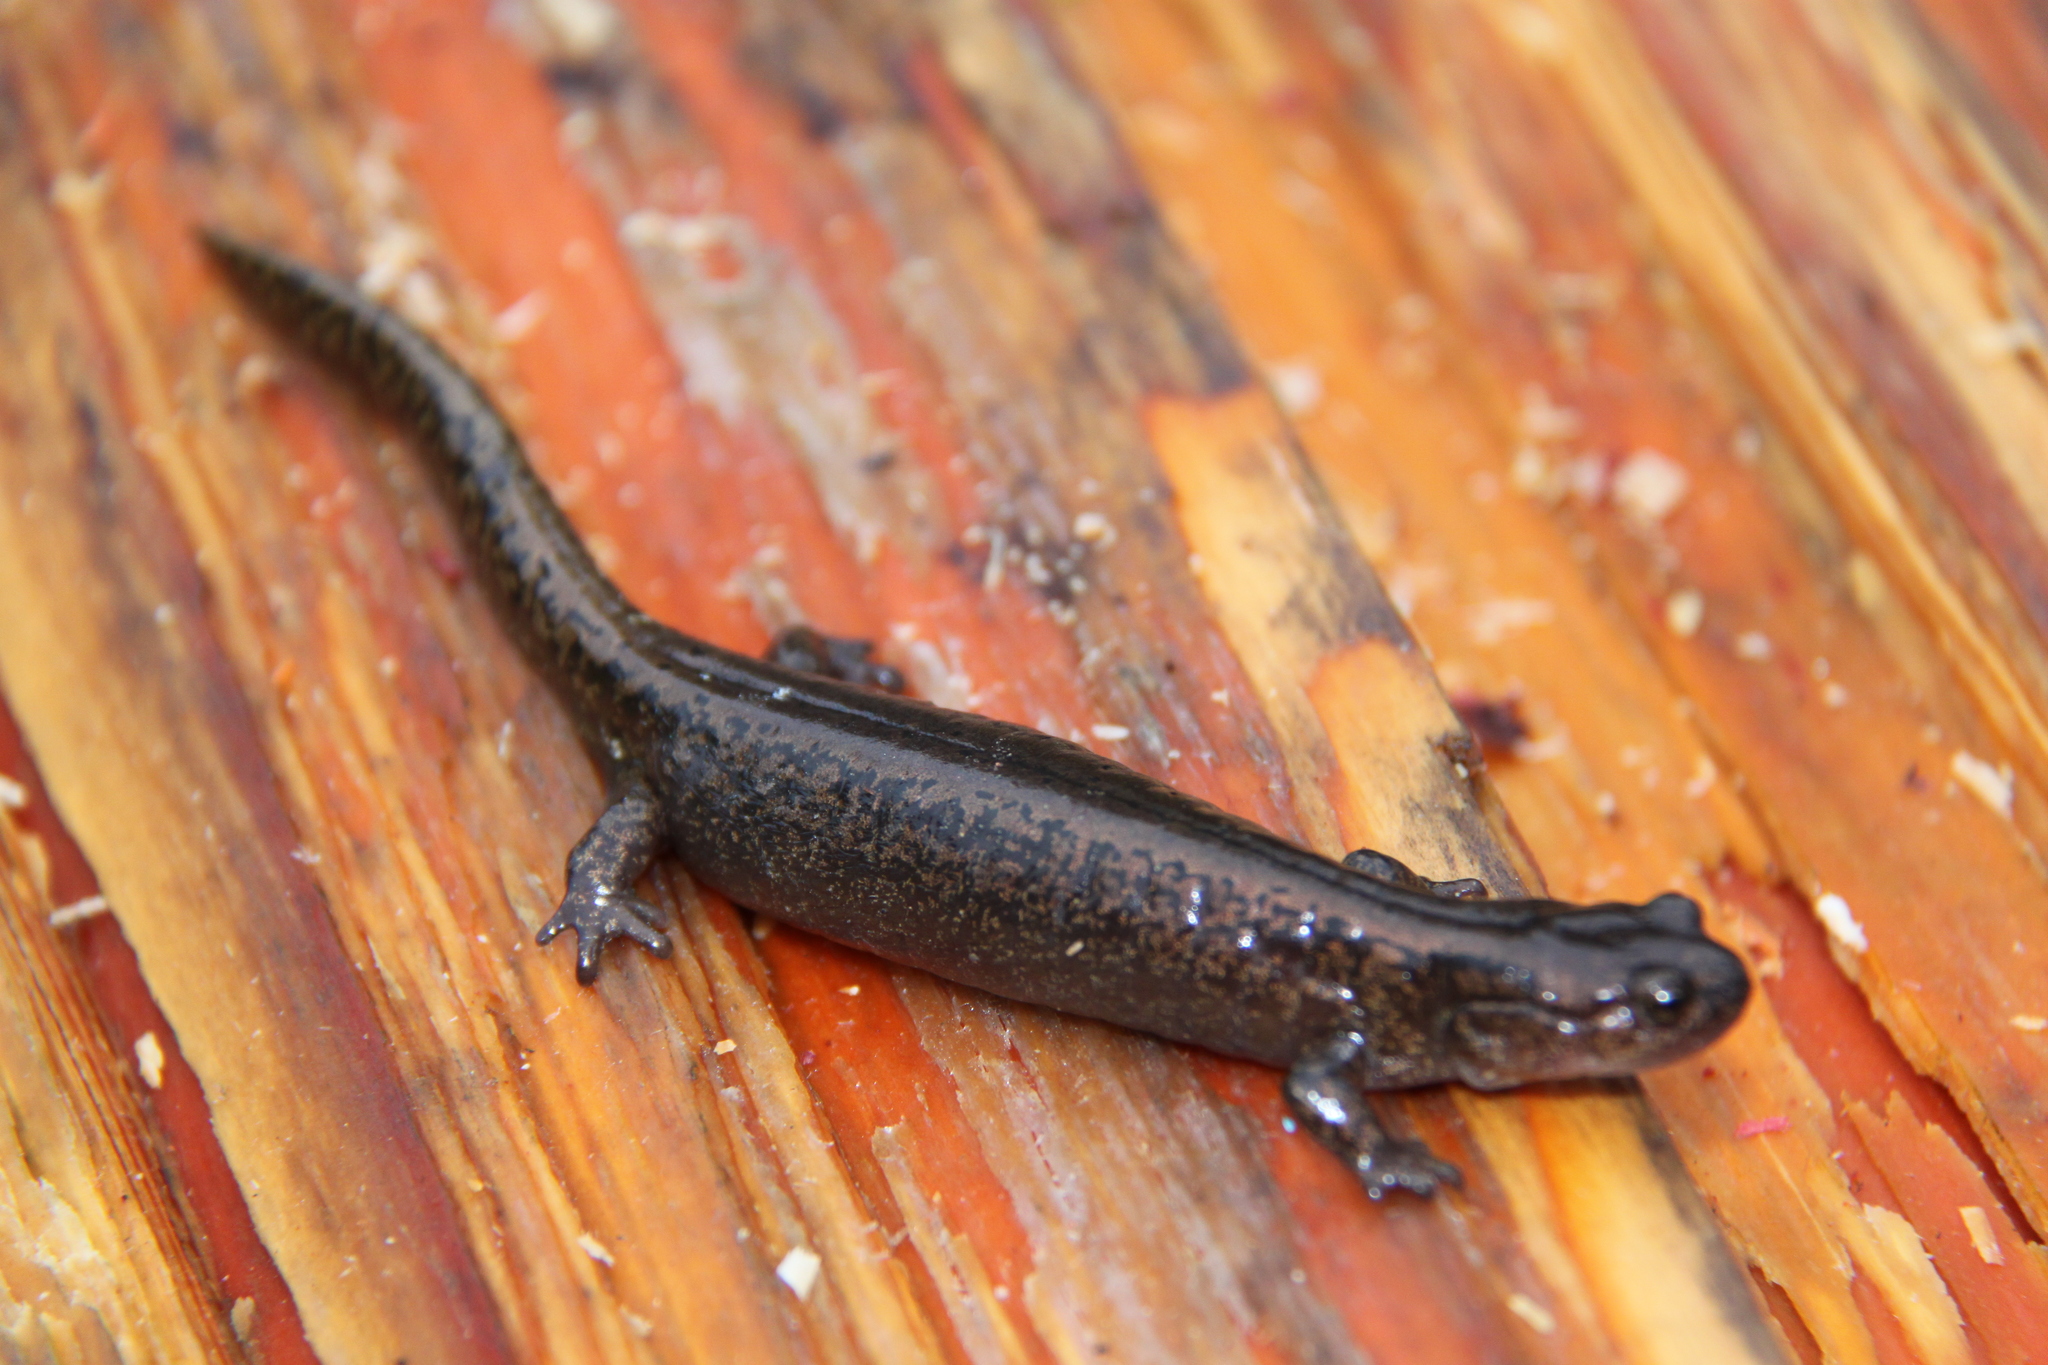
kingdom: Animalia
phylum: Chordata
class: Amphibia
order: Caudata
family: Hynobiidae
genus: Salamandrella
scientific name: Salamandrella keyserlingii
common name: Dybowski's salamander
